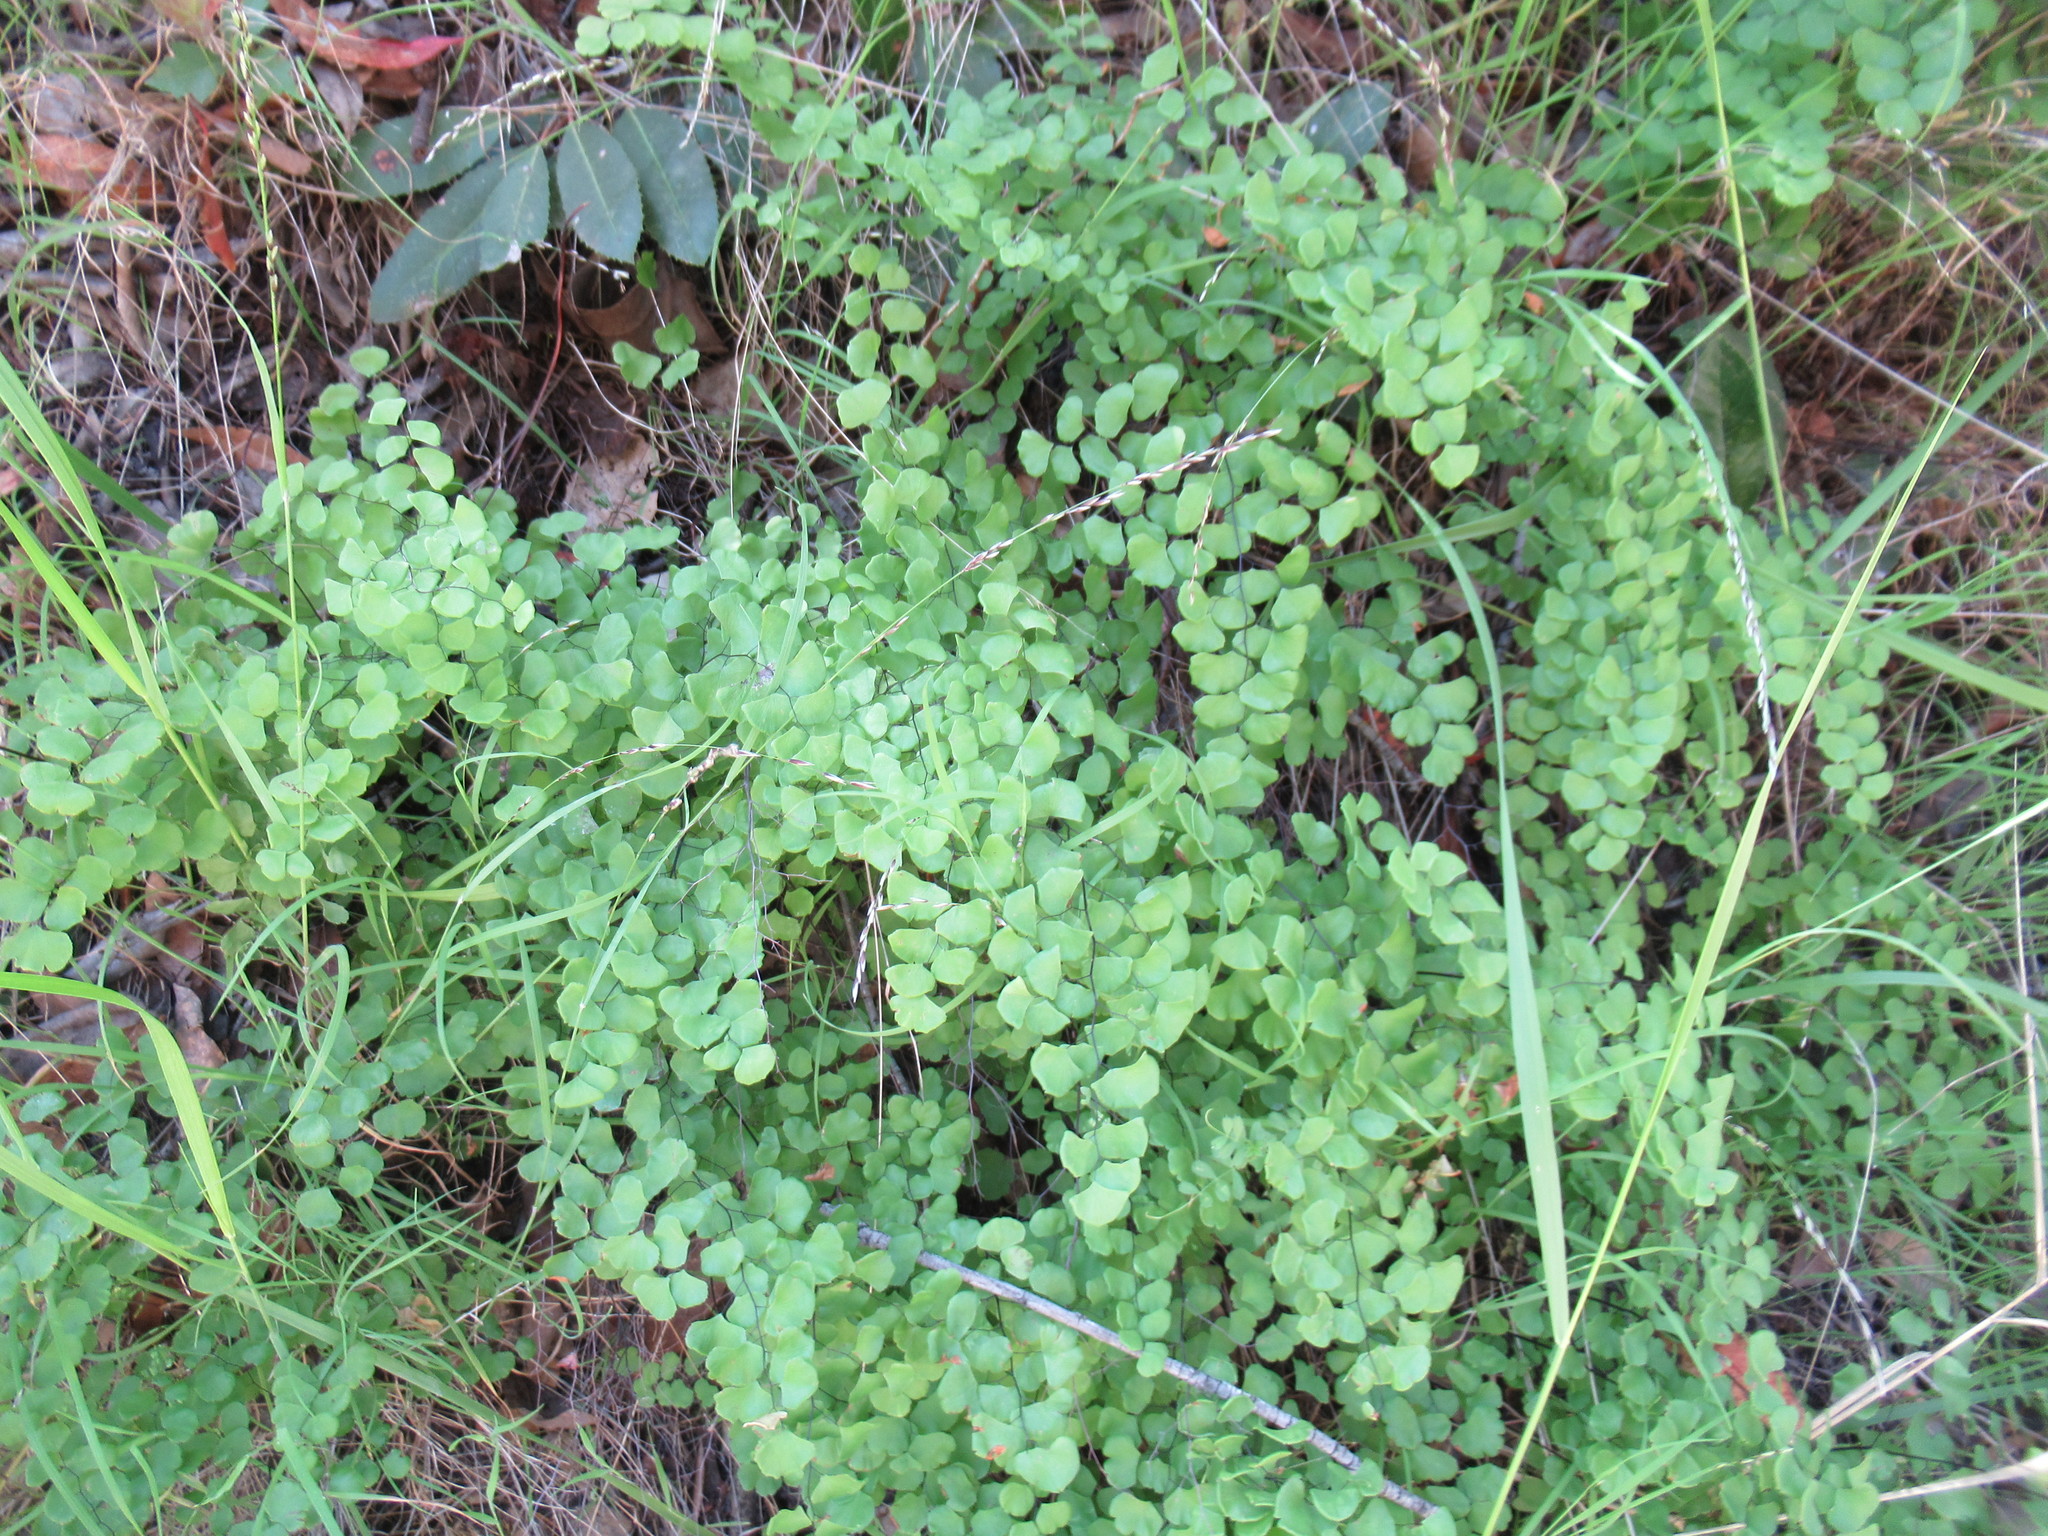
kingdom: Plantae
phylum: Tracheophyta
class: Polypodiopsida
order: Polypodiales
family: Pteridaceae
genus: Adiantum
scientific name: Adiantum jordanii
